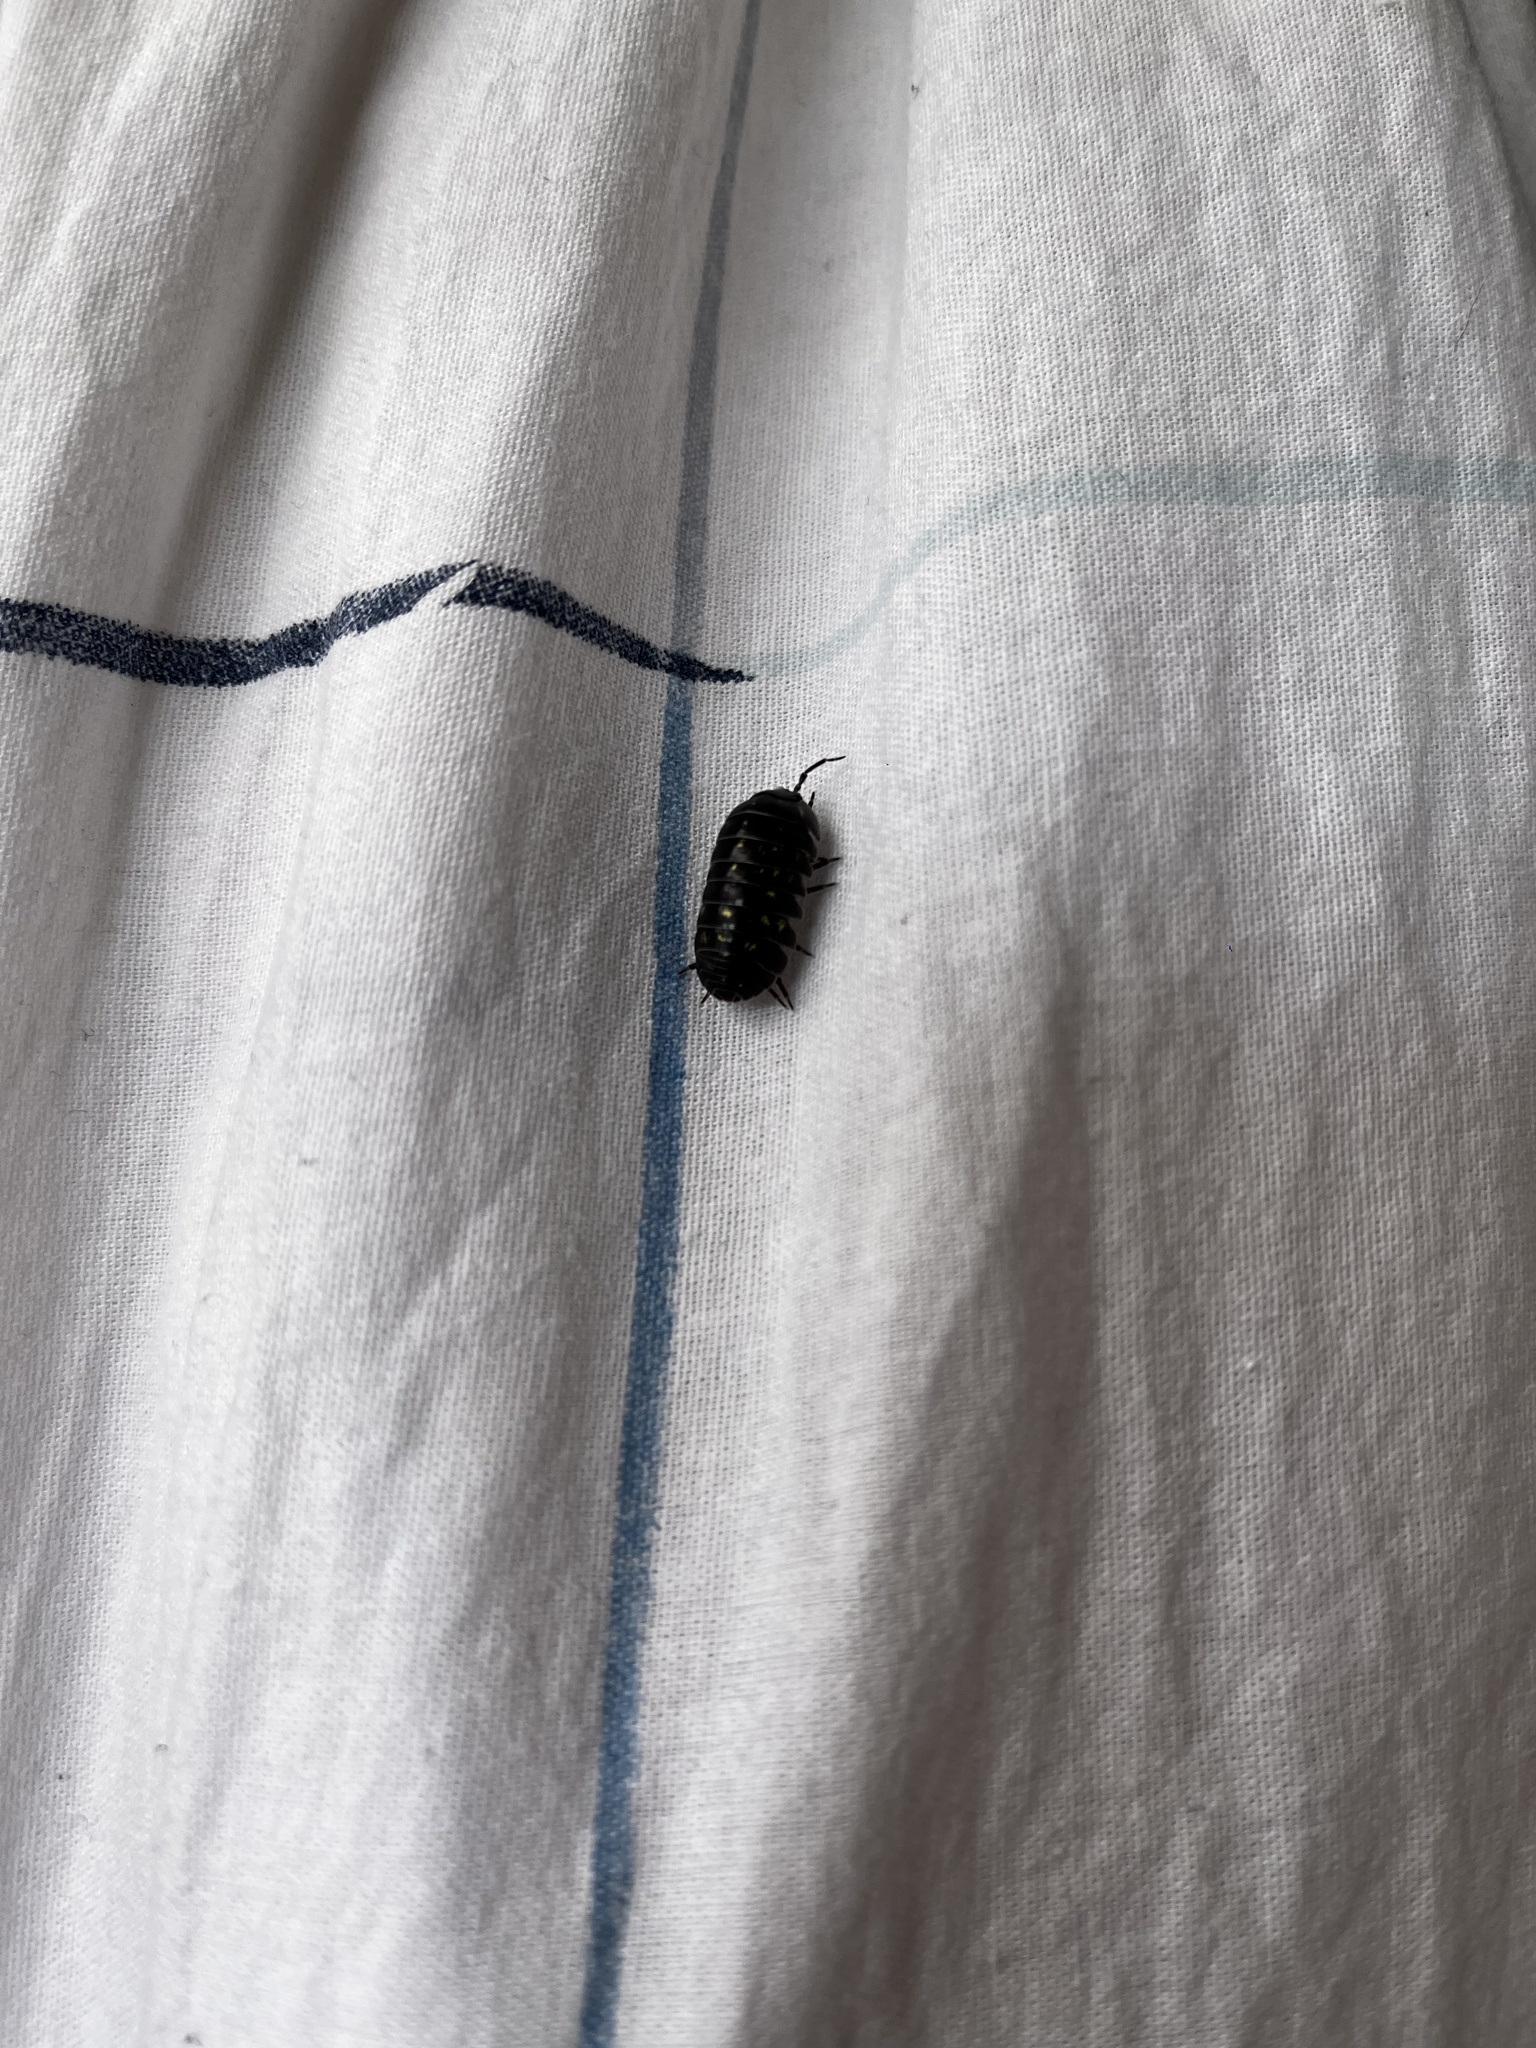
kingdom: Animalia
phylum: Arthropoda
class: Malacostraca
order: Isopoda
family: Armadillidiidae
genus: Armadillidium
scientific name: Armadillidium vulgare
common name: Common pill woodlouse
